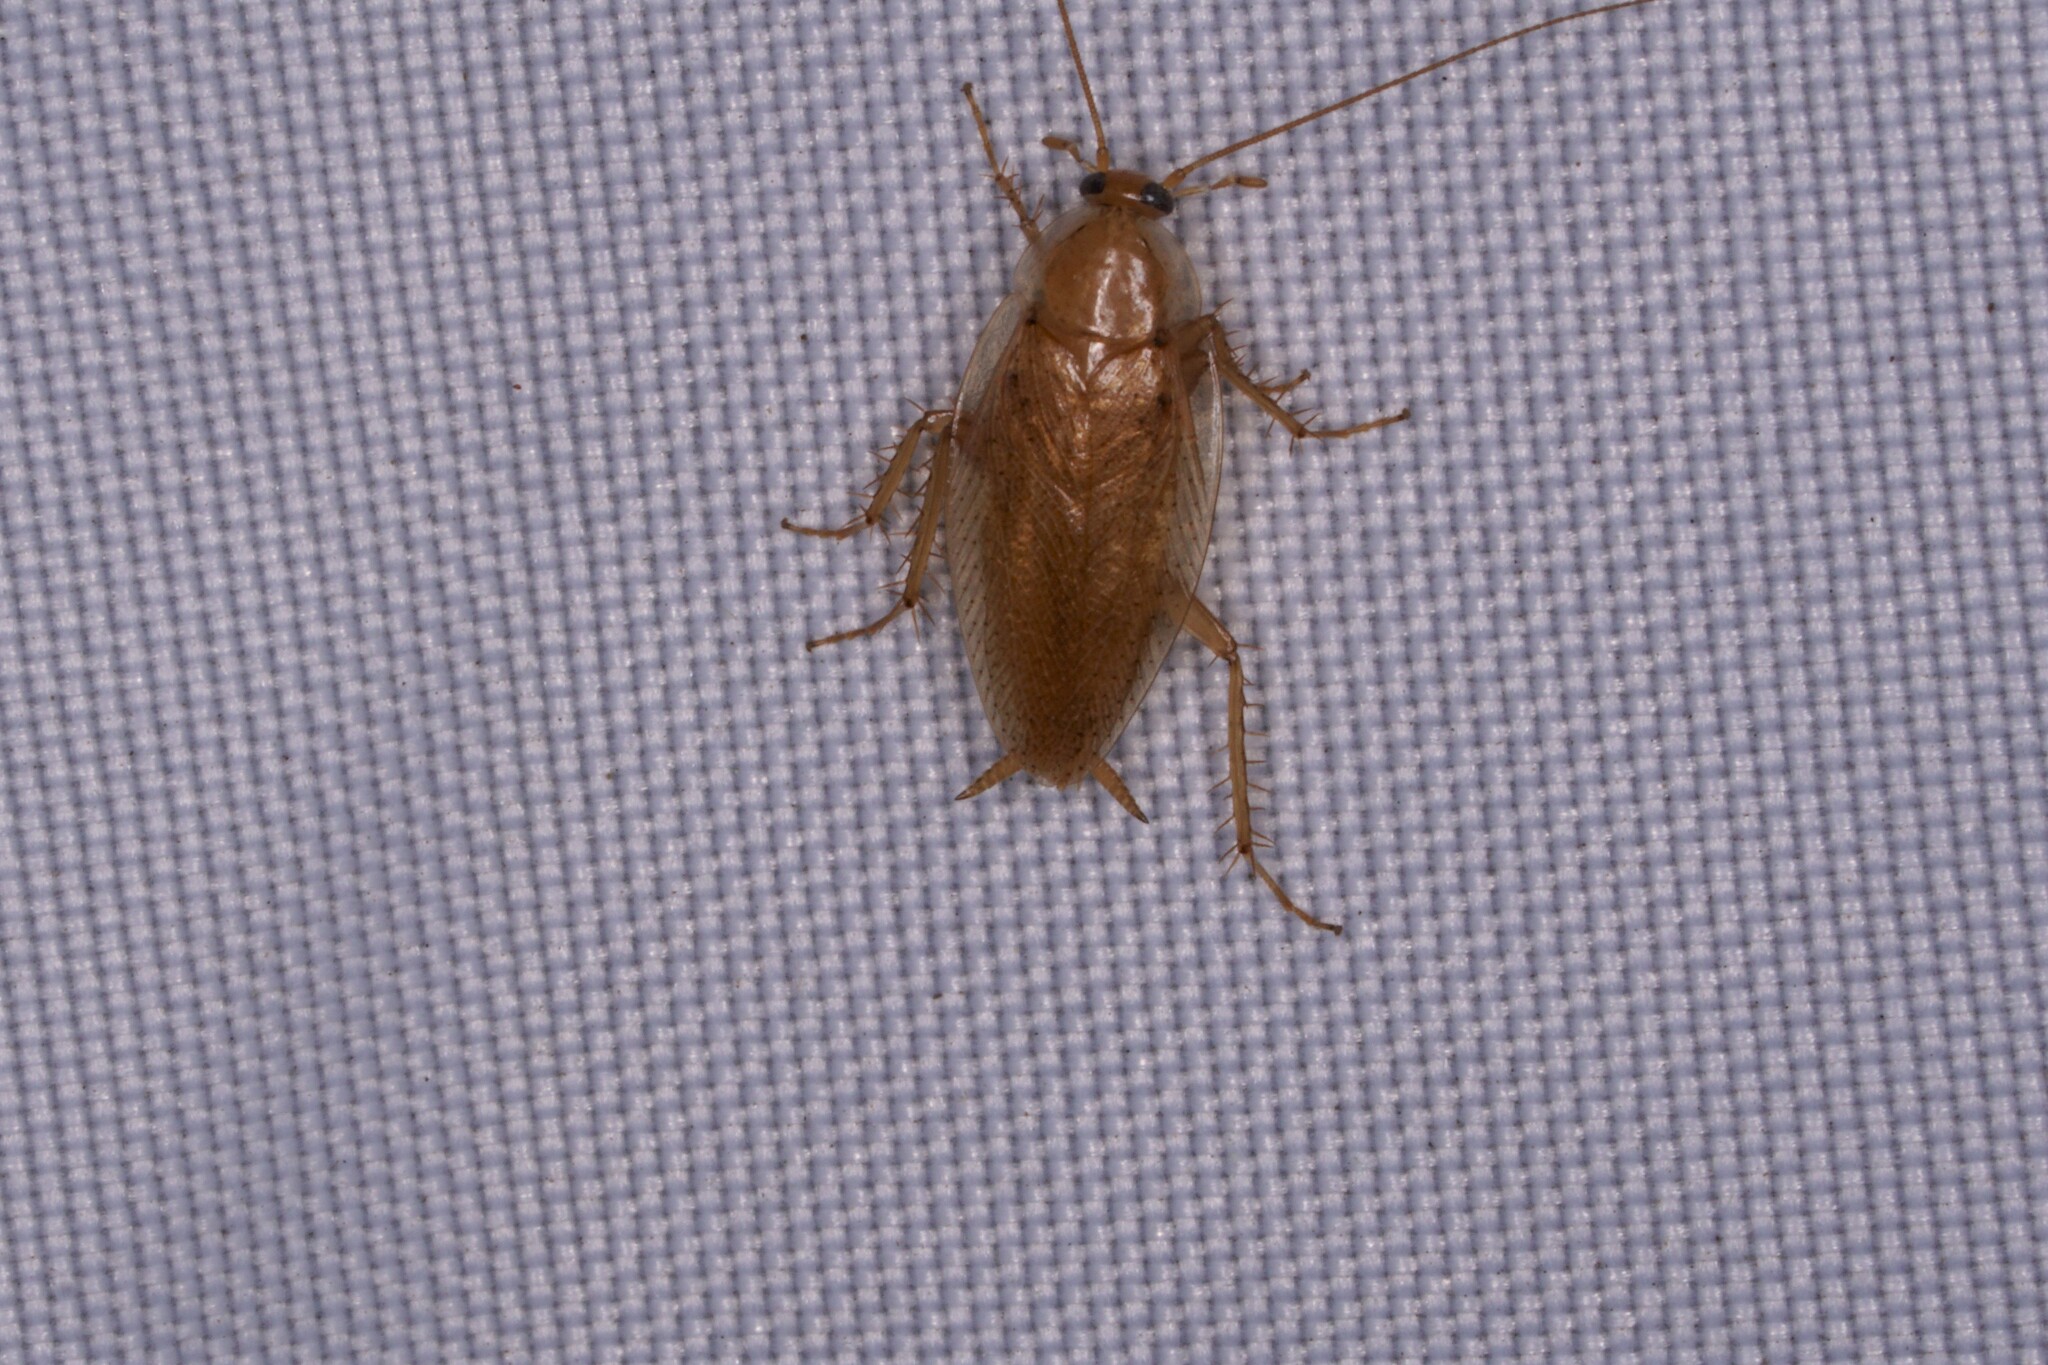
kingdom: Animalia
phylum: Arthropoda
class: Insecta
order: Blattodea
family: Ectobiidae
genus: Ectobius
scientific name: Ectobius pallidus
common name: Tawny cockroach
